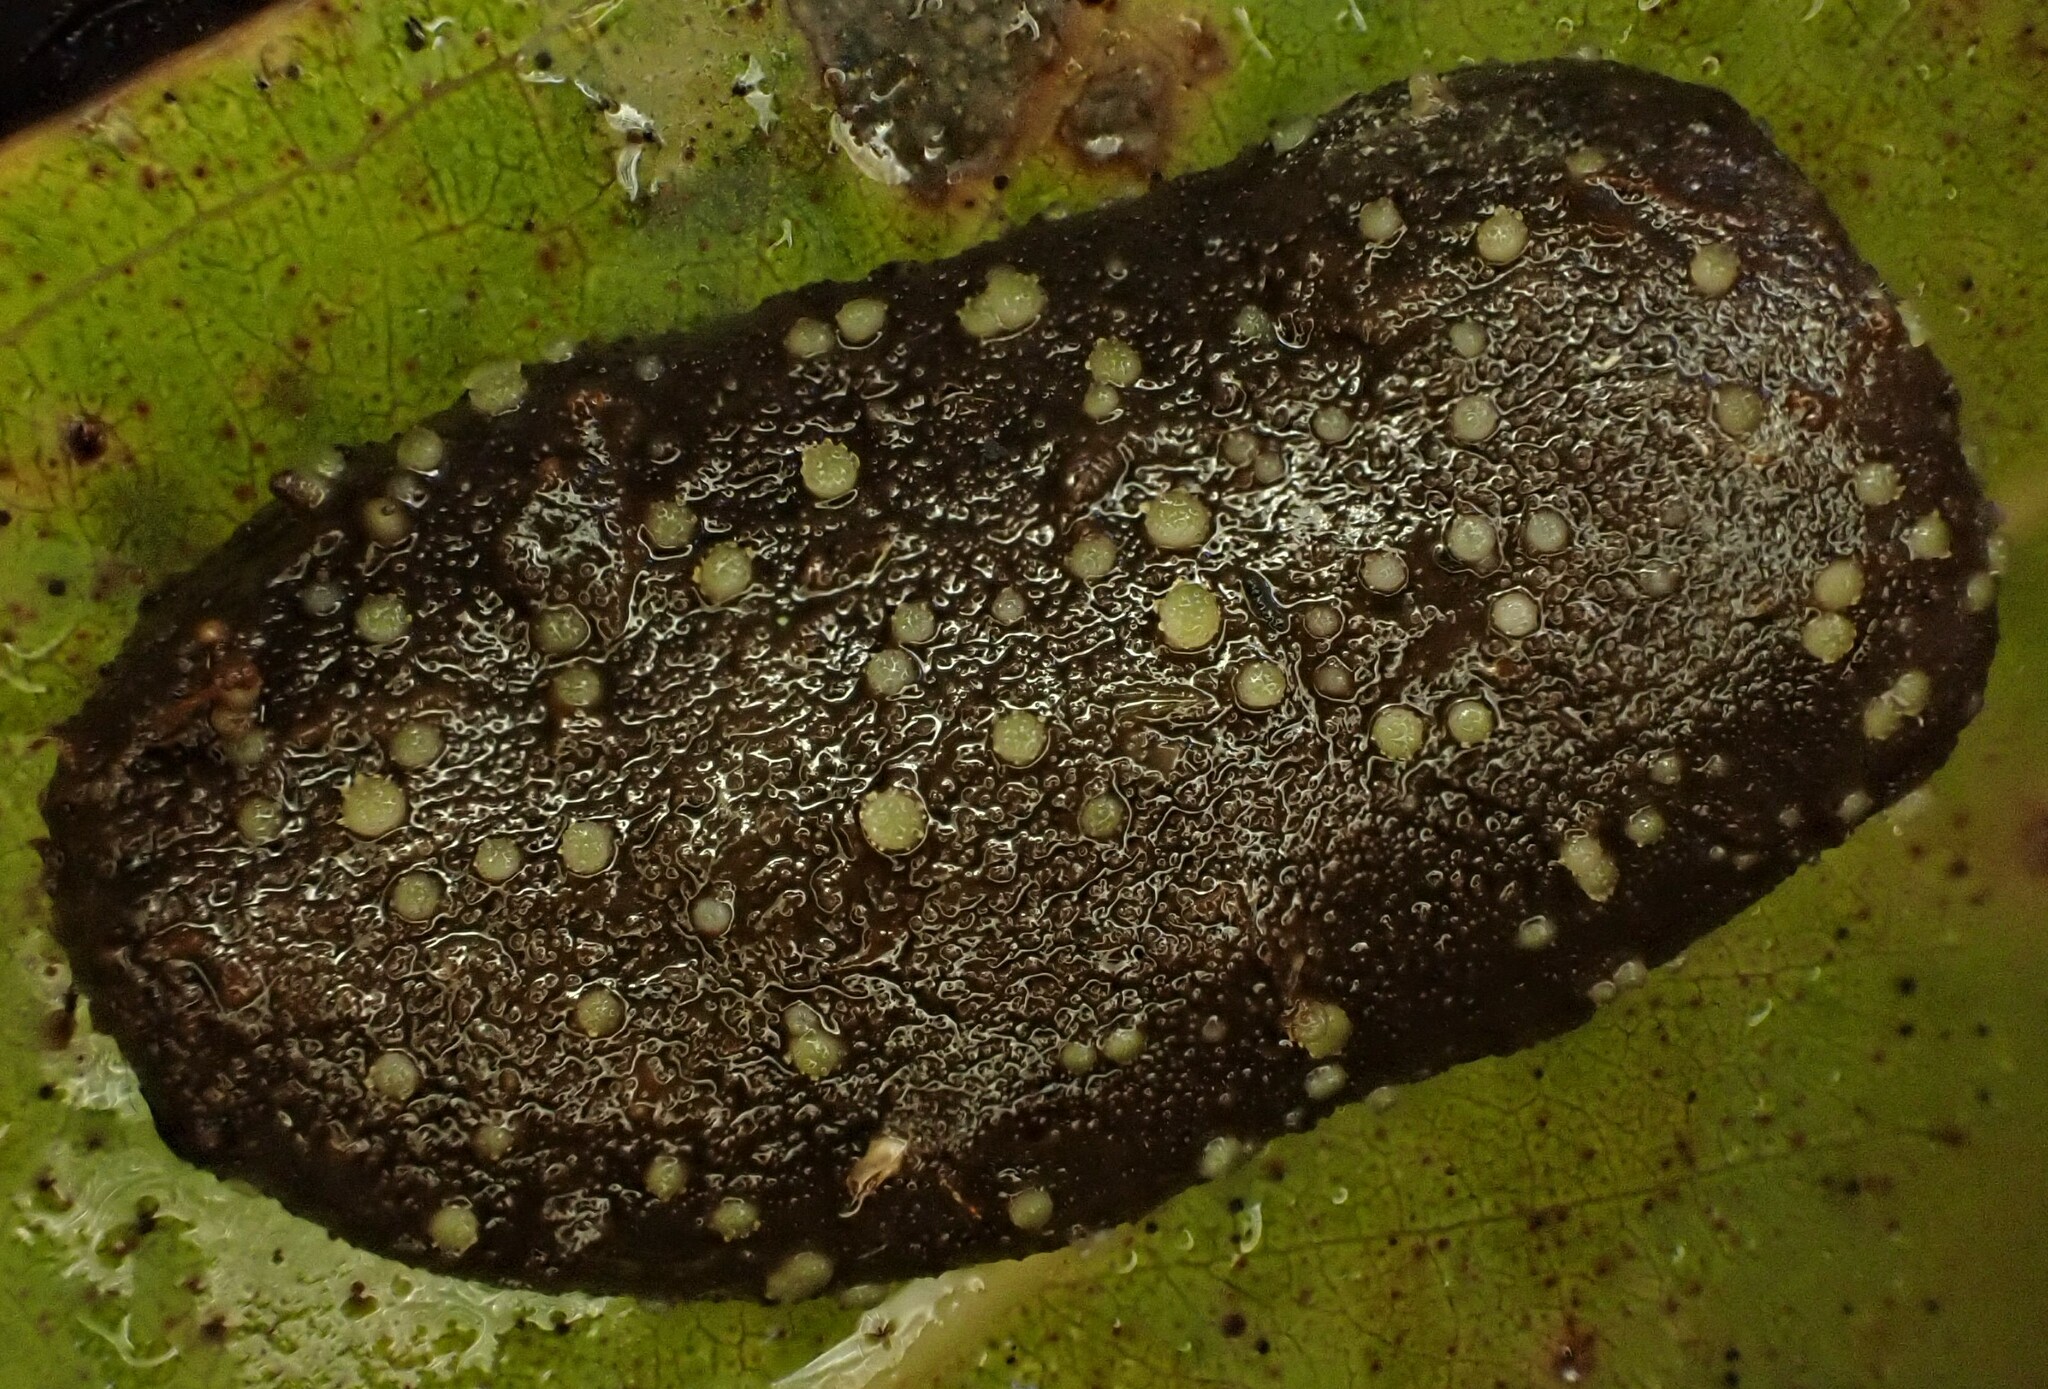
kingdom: Fungi
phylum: Ascomycota
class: Pezizomycetes
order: Pezizales
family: Ascobolaceae
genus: Ascobolus
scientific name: Ascobolus crenulatus
